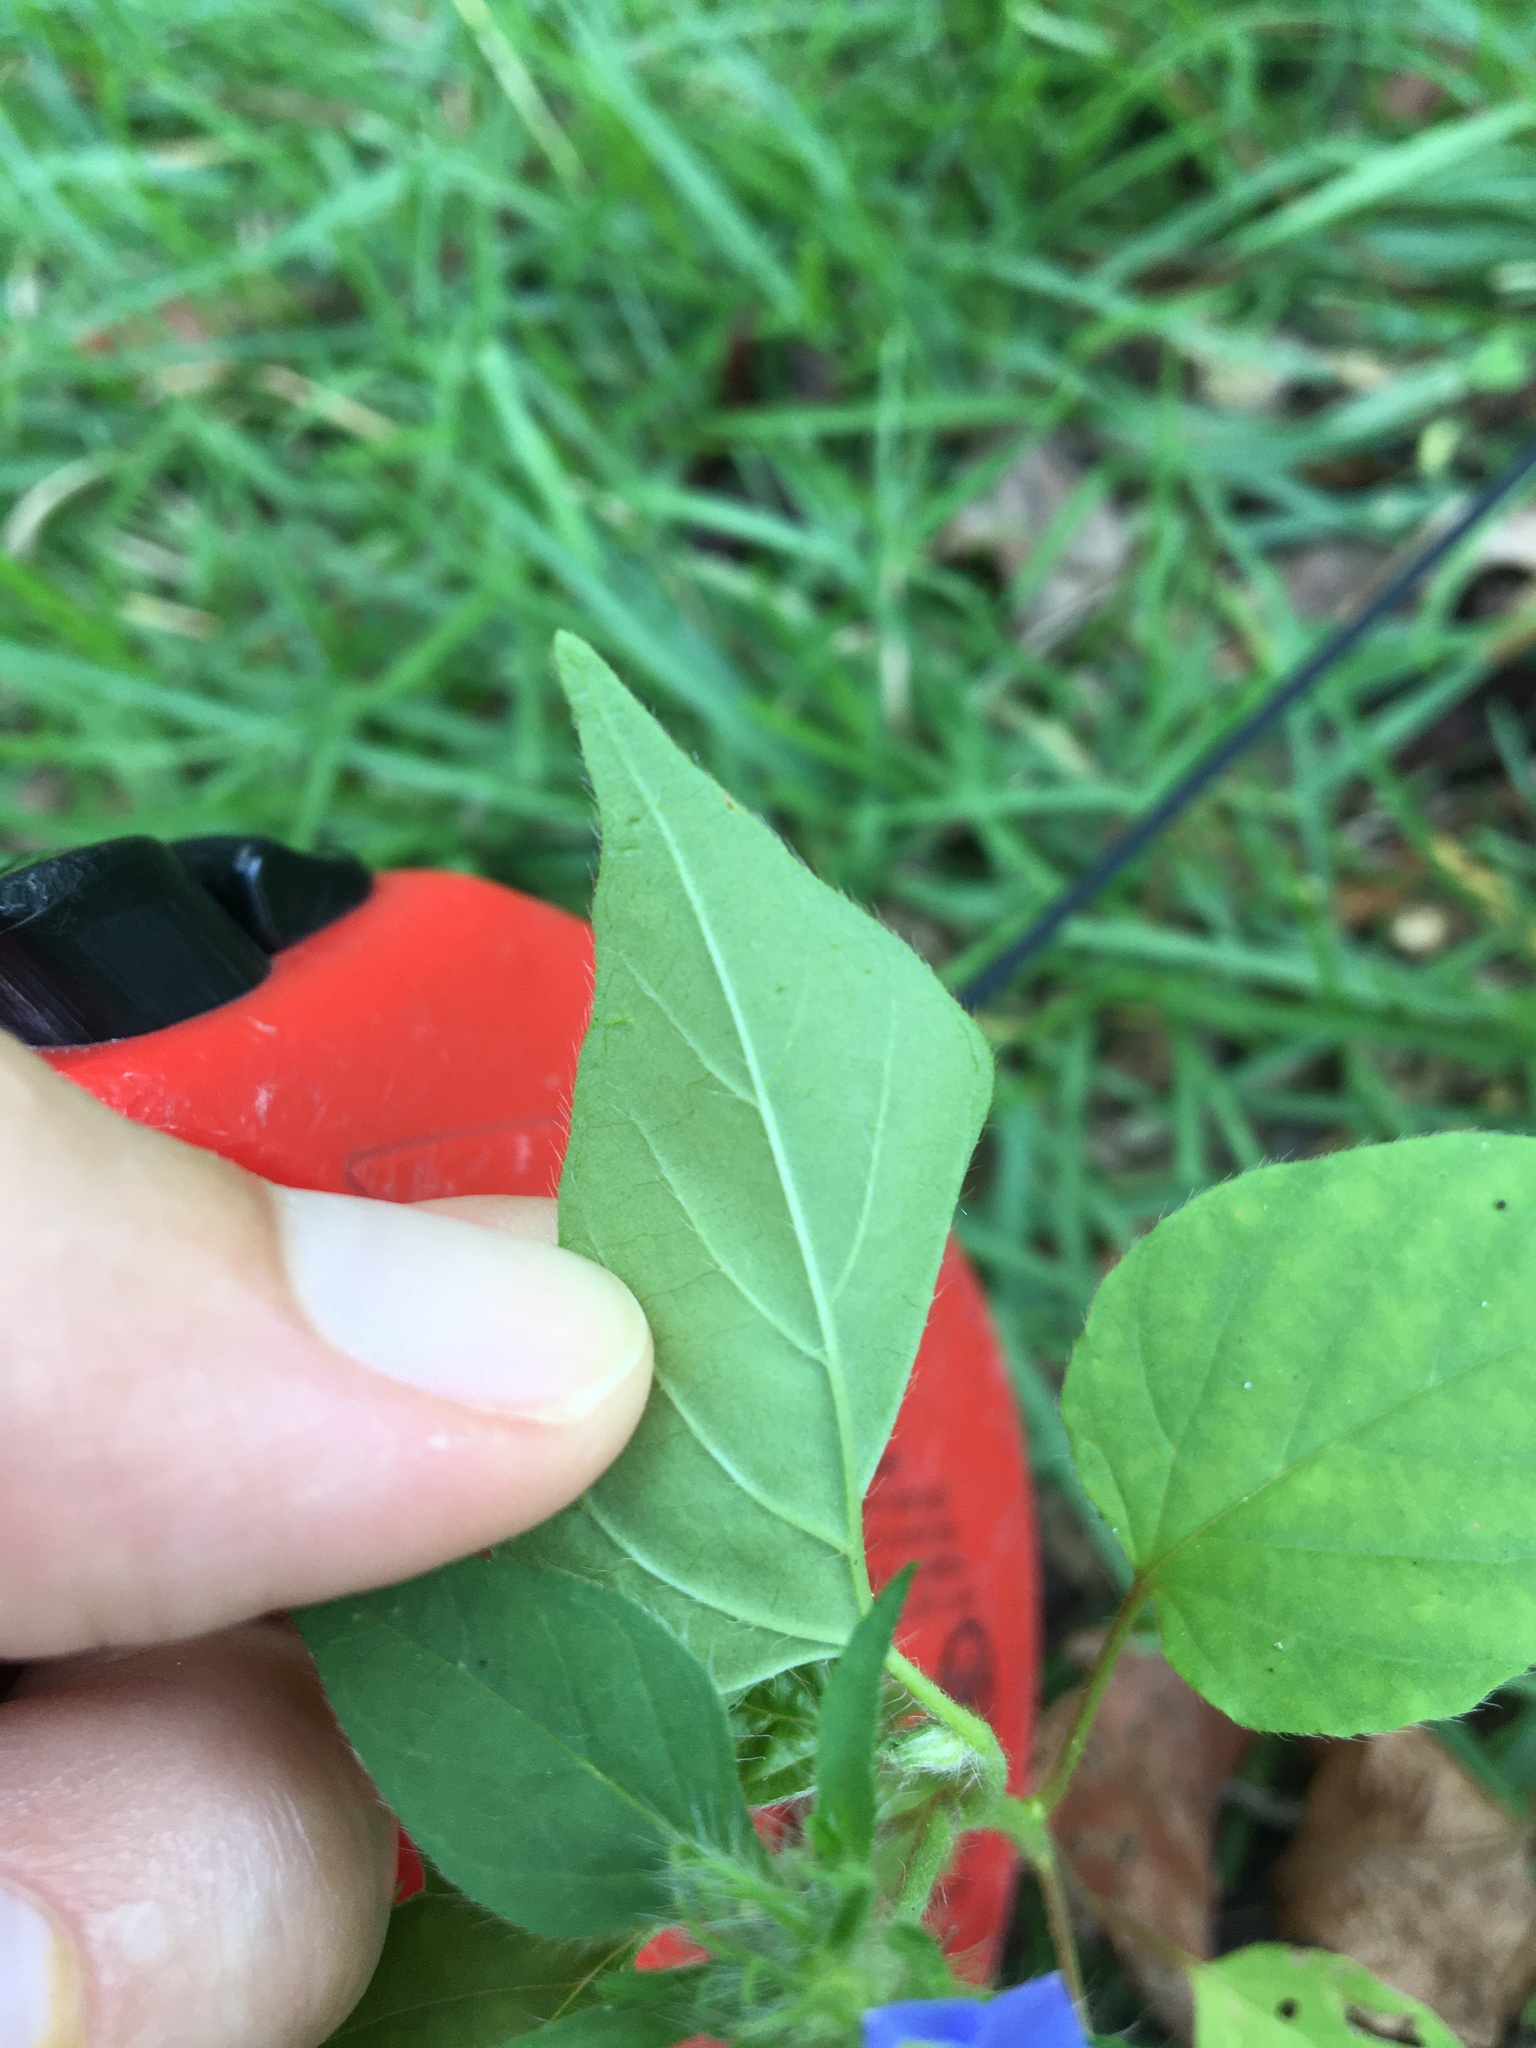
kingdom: Plantae
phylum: Tracheophyta
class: Magnoliopsida
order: Solanales
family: Convolvulaceae
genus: Jacquemontia
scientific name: Jacquemontia tamnifolia
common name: Hairy clustervine
